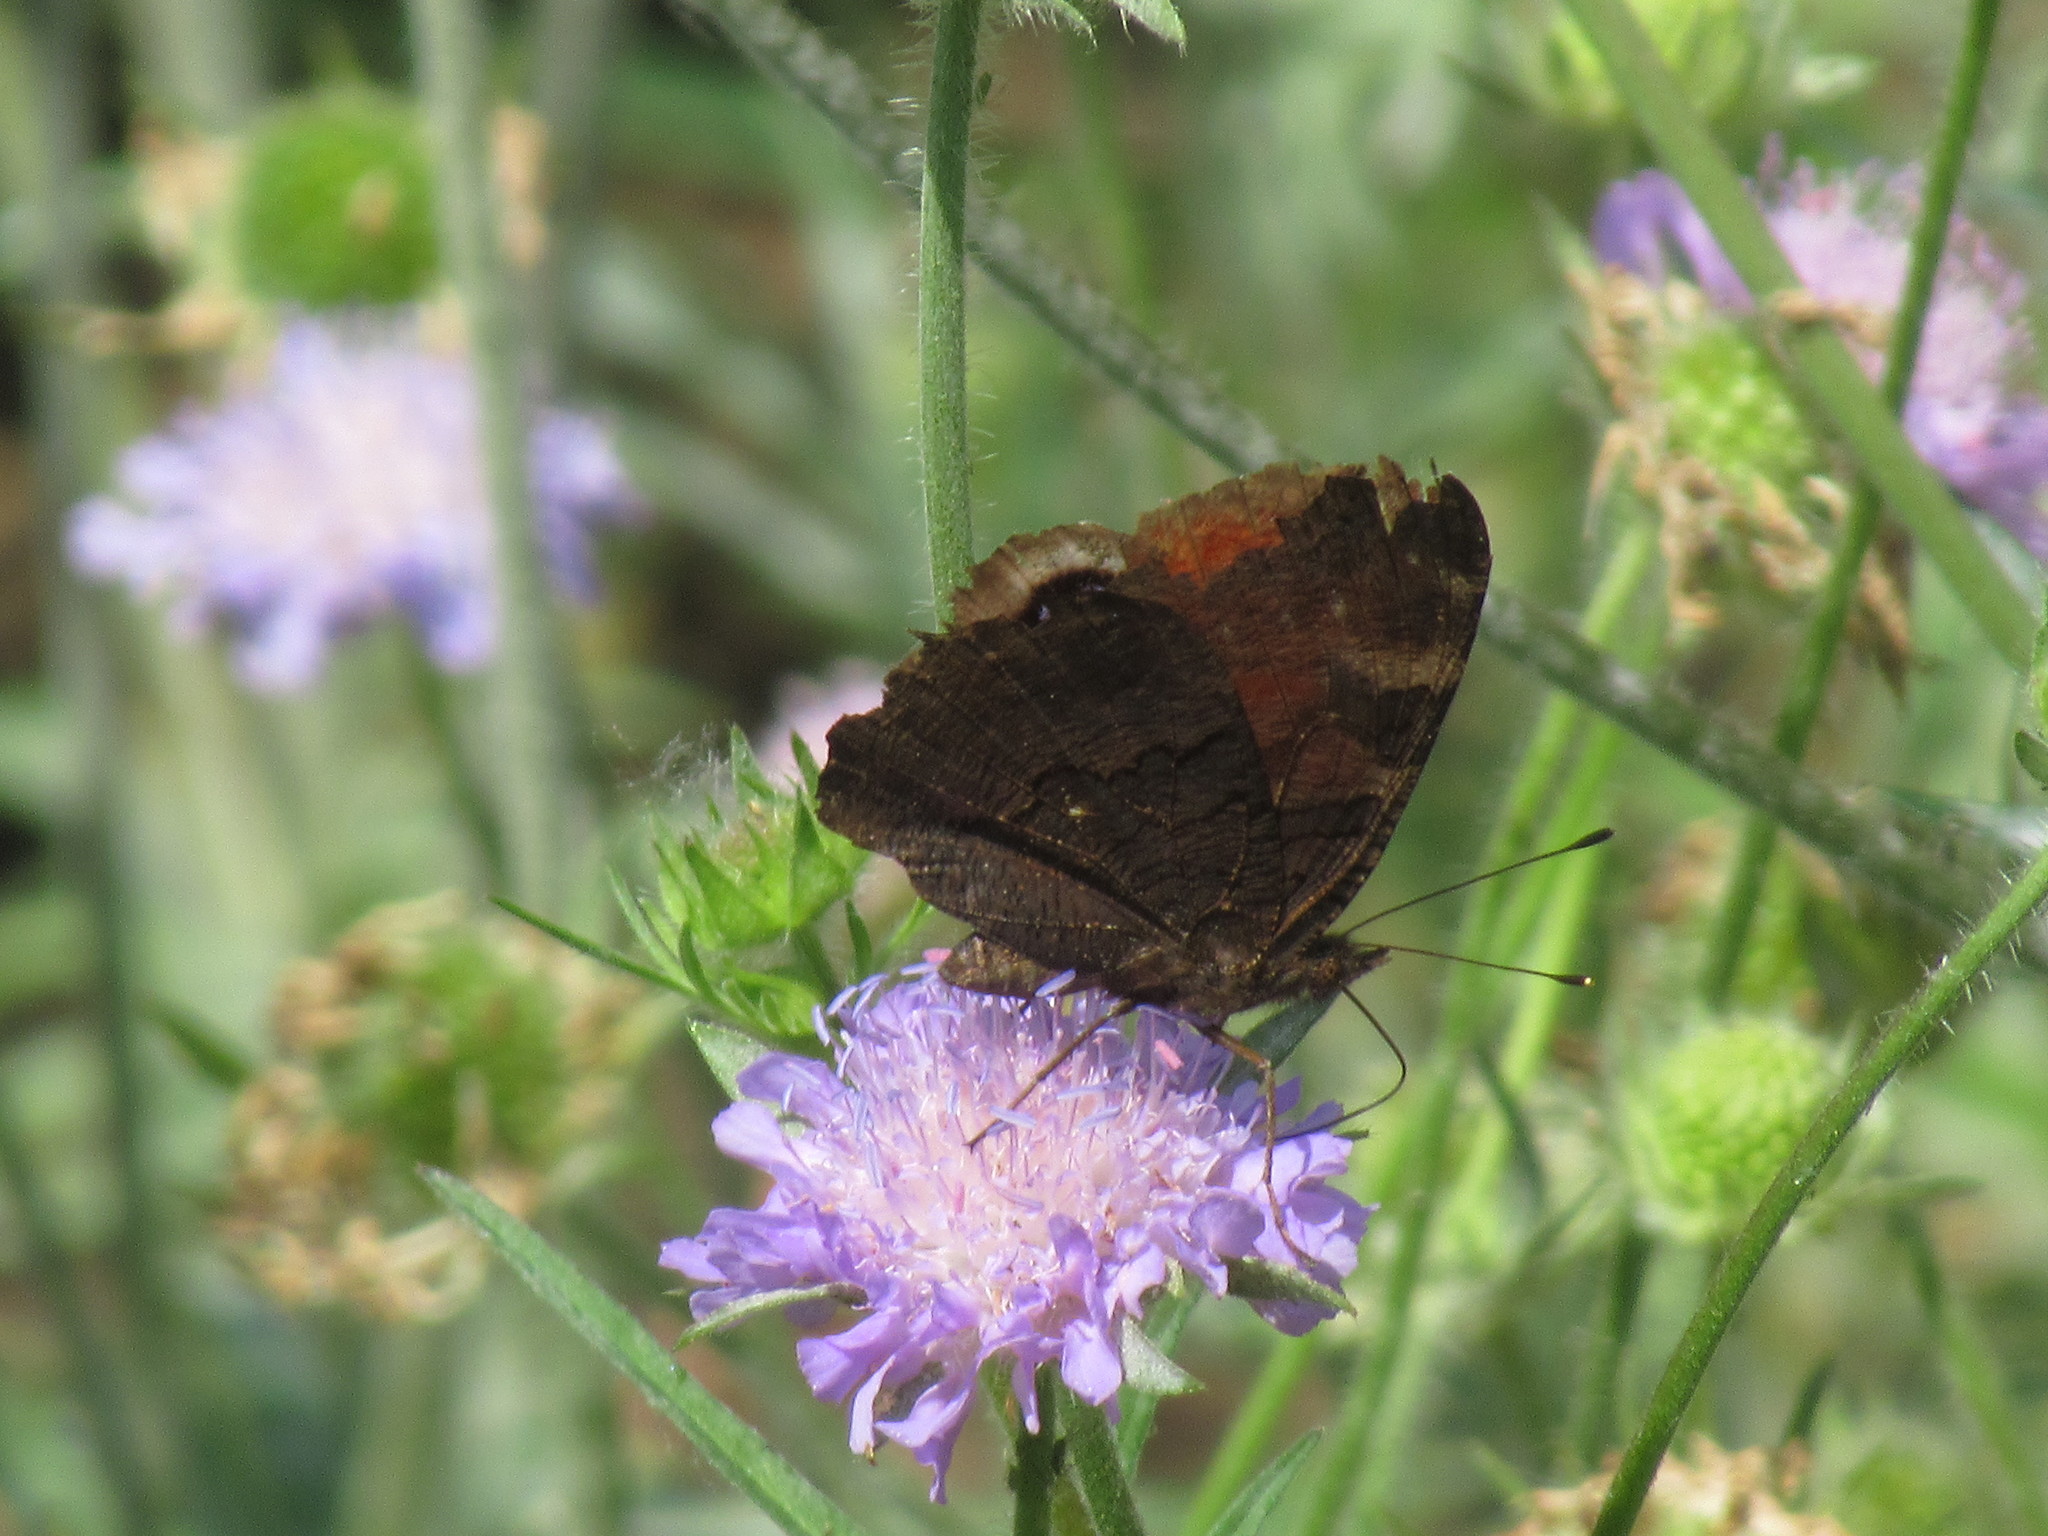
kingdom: Animalia
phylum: Arthropoda
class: Insecta
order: Lepidoptera
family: Nymphalidae
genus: Aglais
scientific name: Aglais io
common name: Peacock
